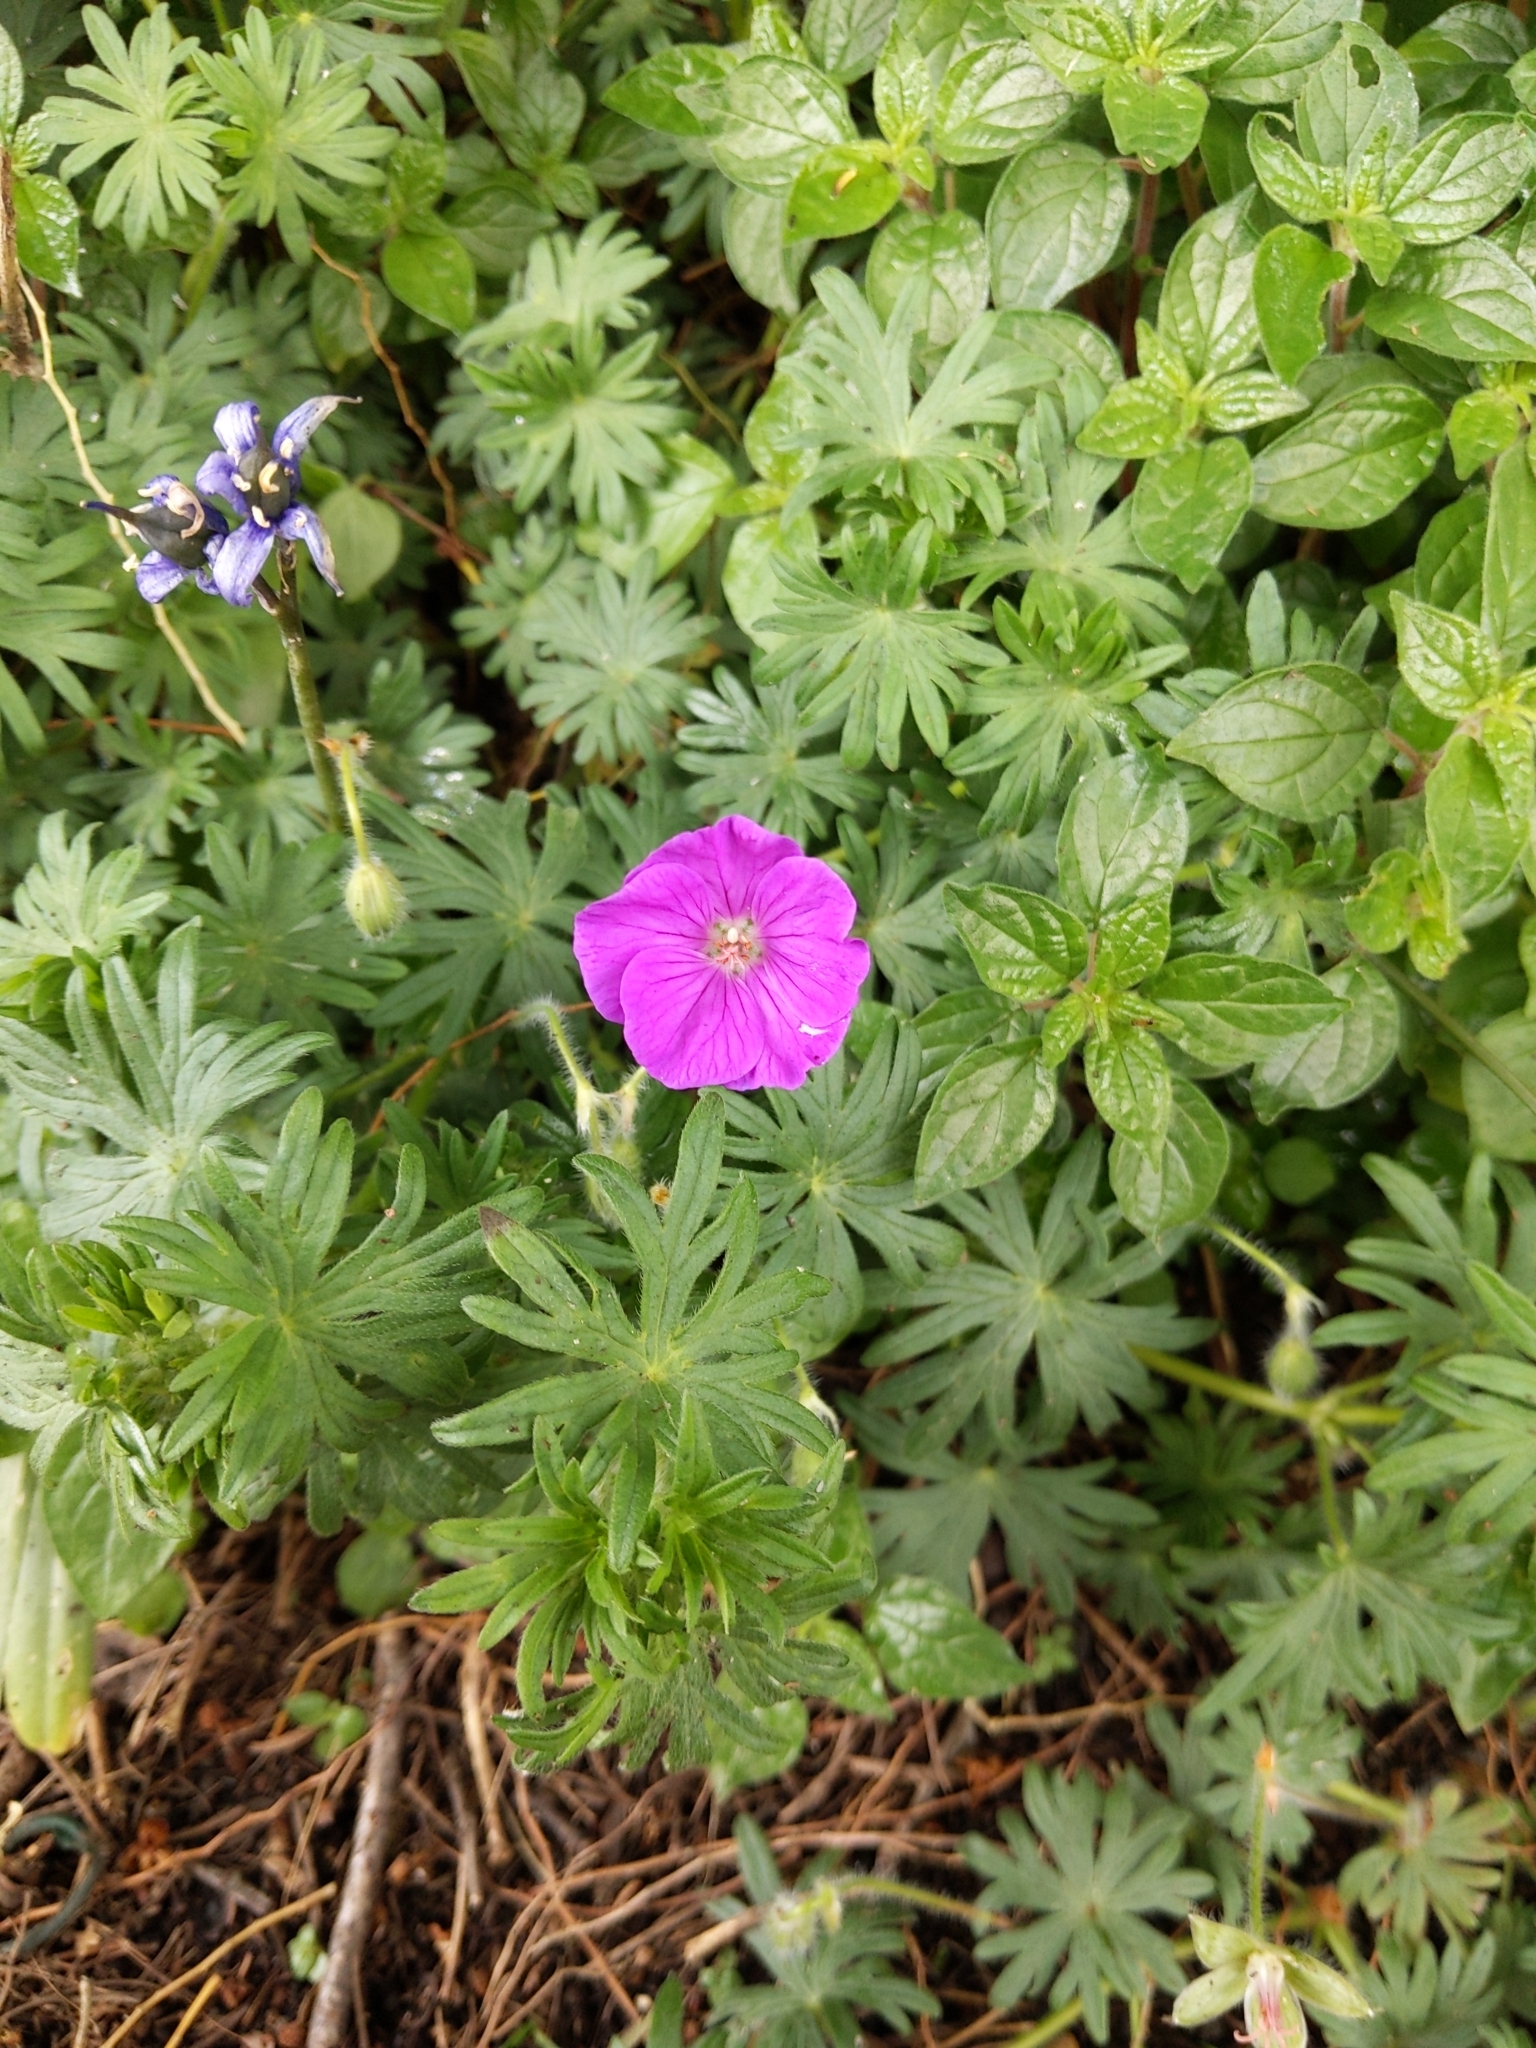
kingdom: Plantae
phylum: Tracheophyta
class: Magnoliopsida
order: Geraniales
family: Geraniaceae
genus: Geranium
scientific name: Geranium sanguineum
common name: Bloody crane's-bill
